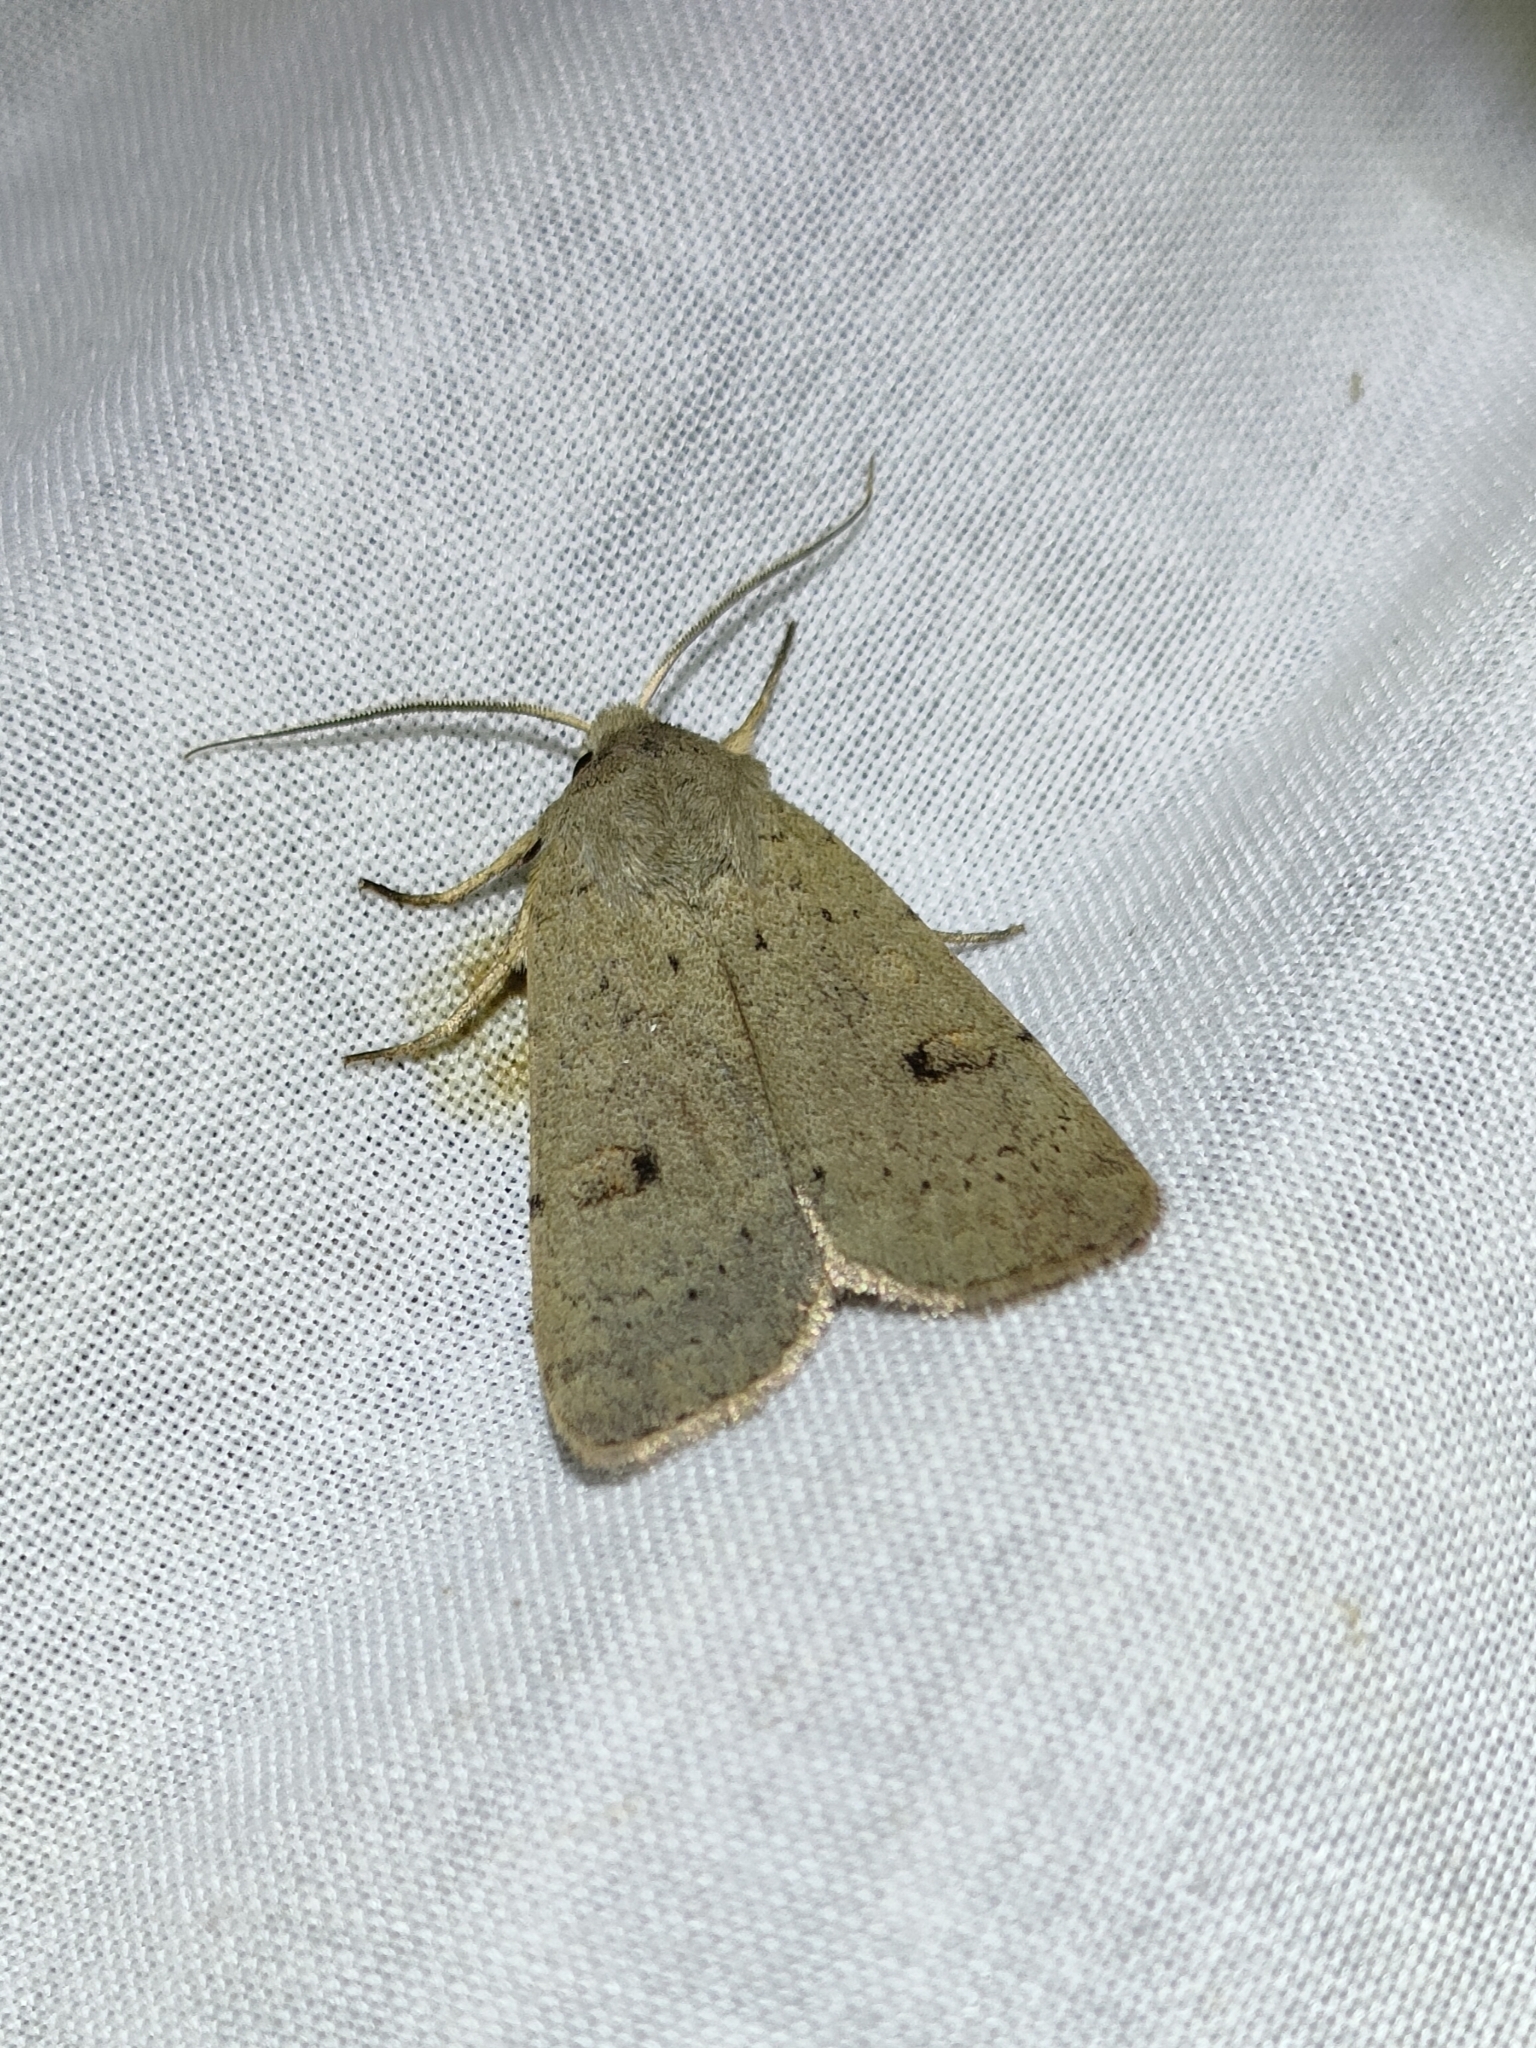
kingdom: Animalia
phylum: Arthropoda
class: Insecta
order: Lepidoptera
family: Noctuidae
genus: Xestia
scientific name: Xestia castanea
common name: Neglected rustic
